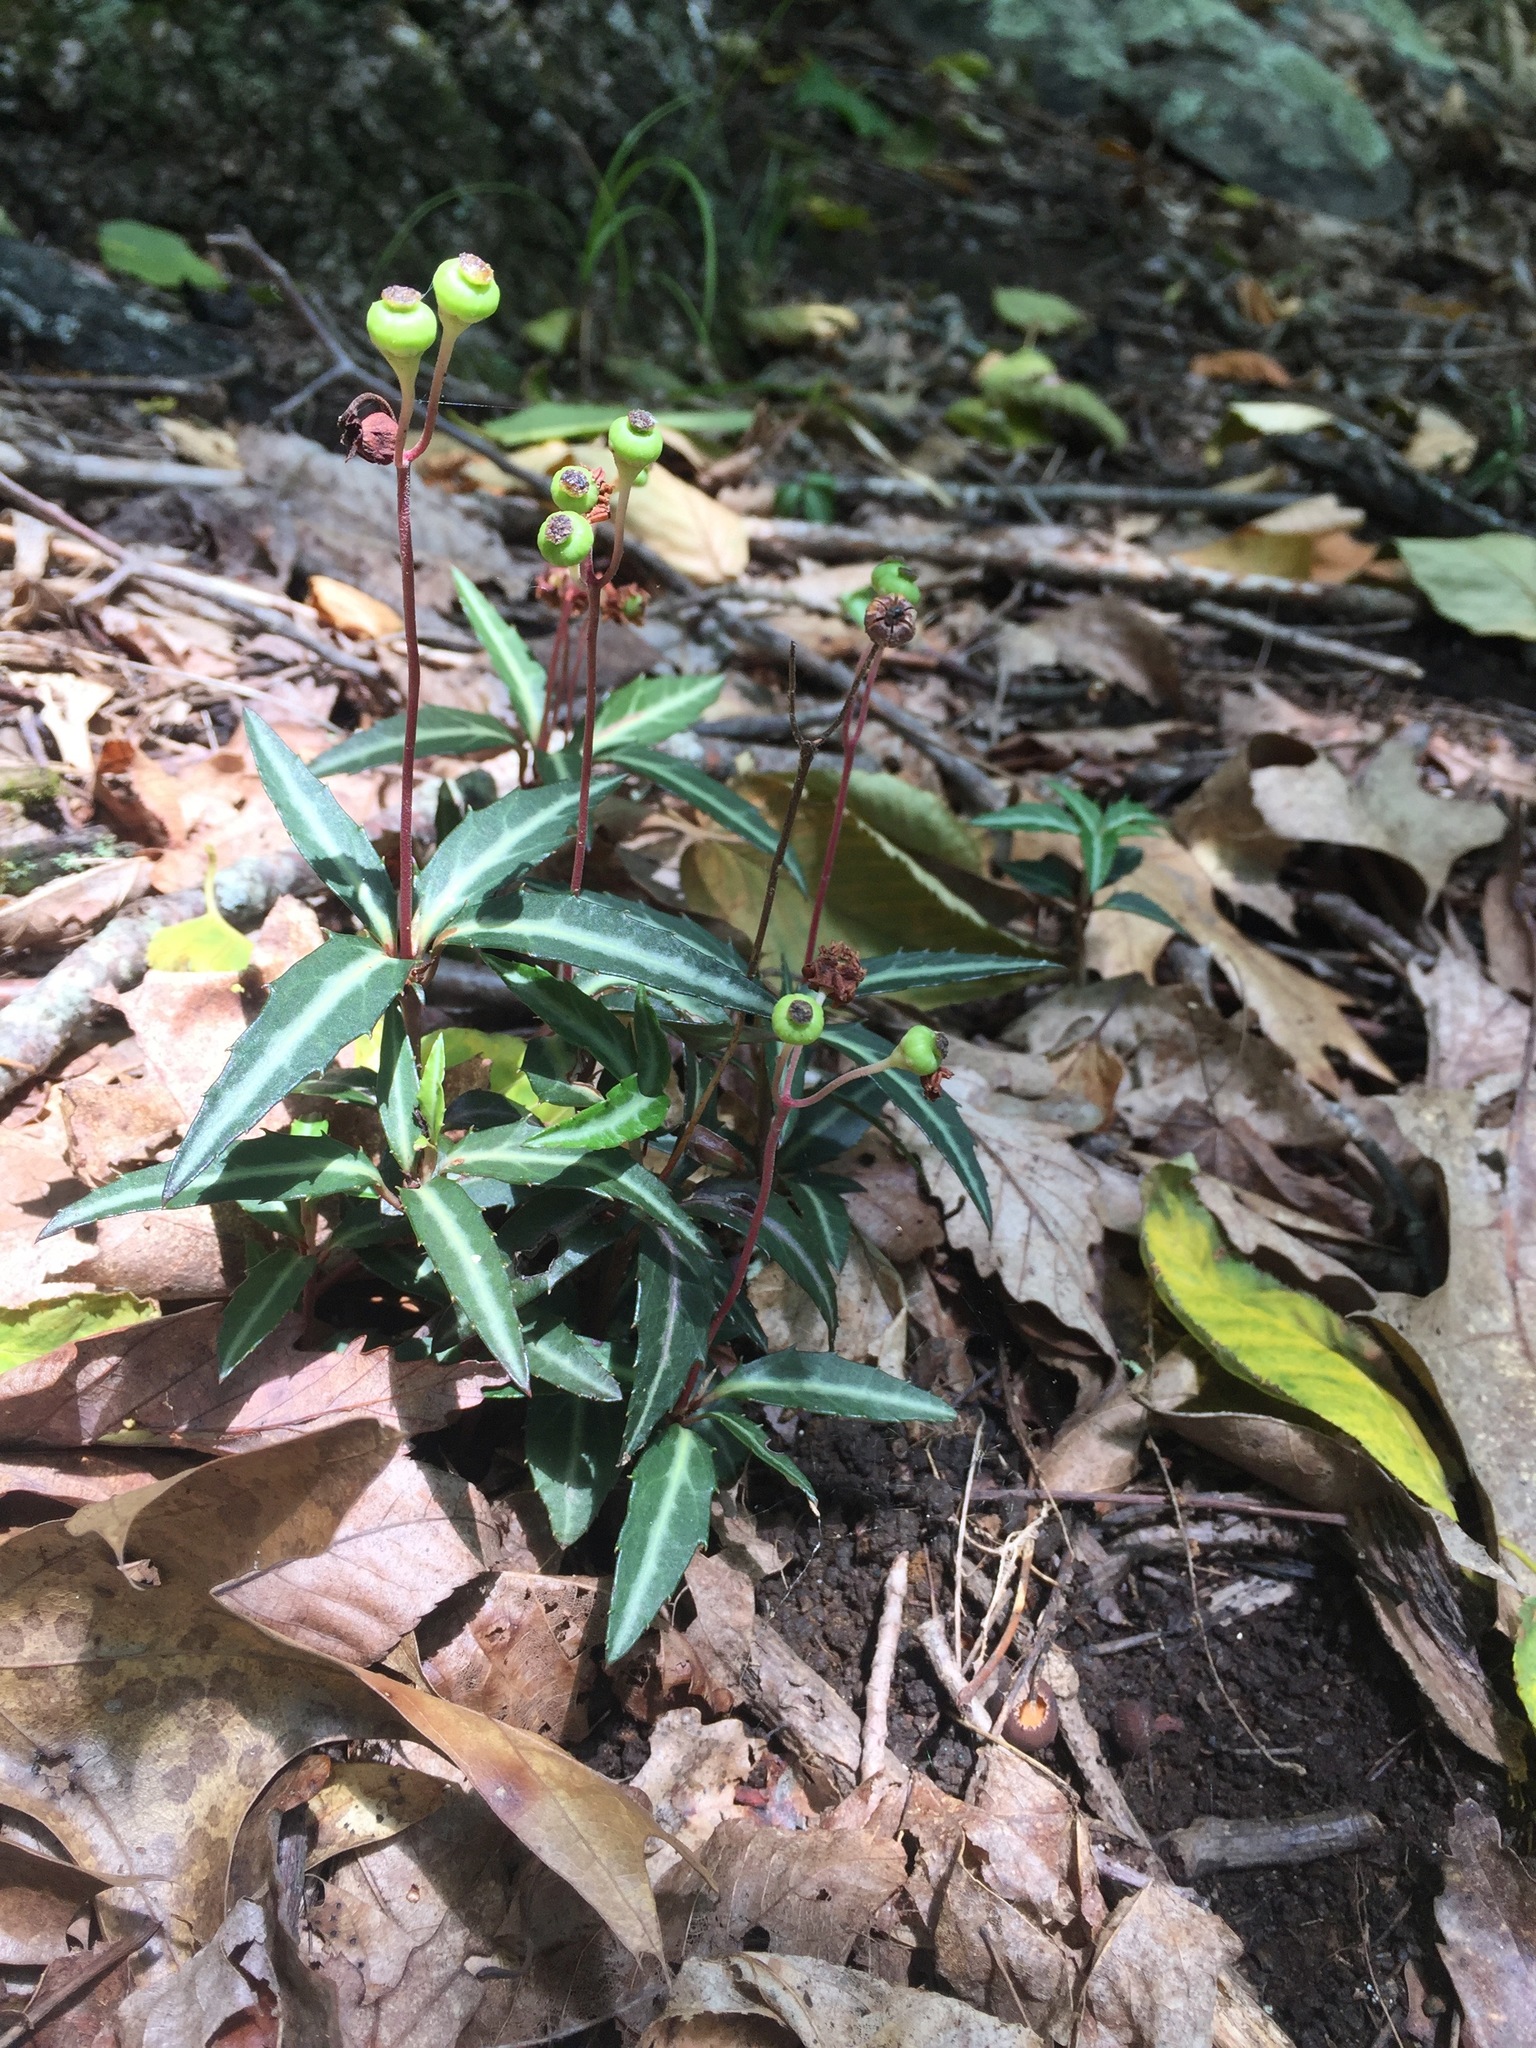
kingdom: Plantae
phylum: Tracheophyta
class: Magnoliopsida
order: Ericales
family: Ericaceae
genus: Chimaphila
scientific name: Chimaphila maculata
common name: Spotted pipsissewa
